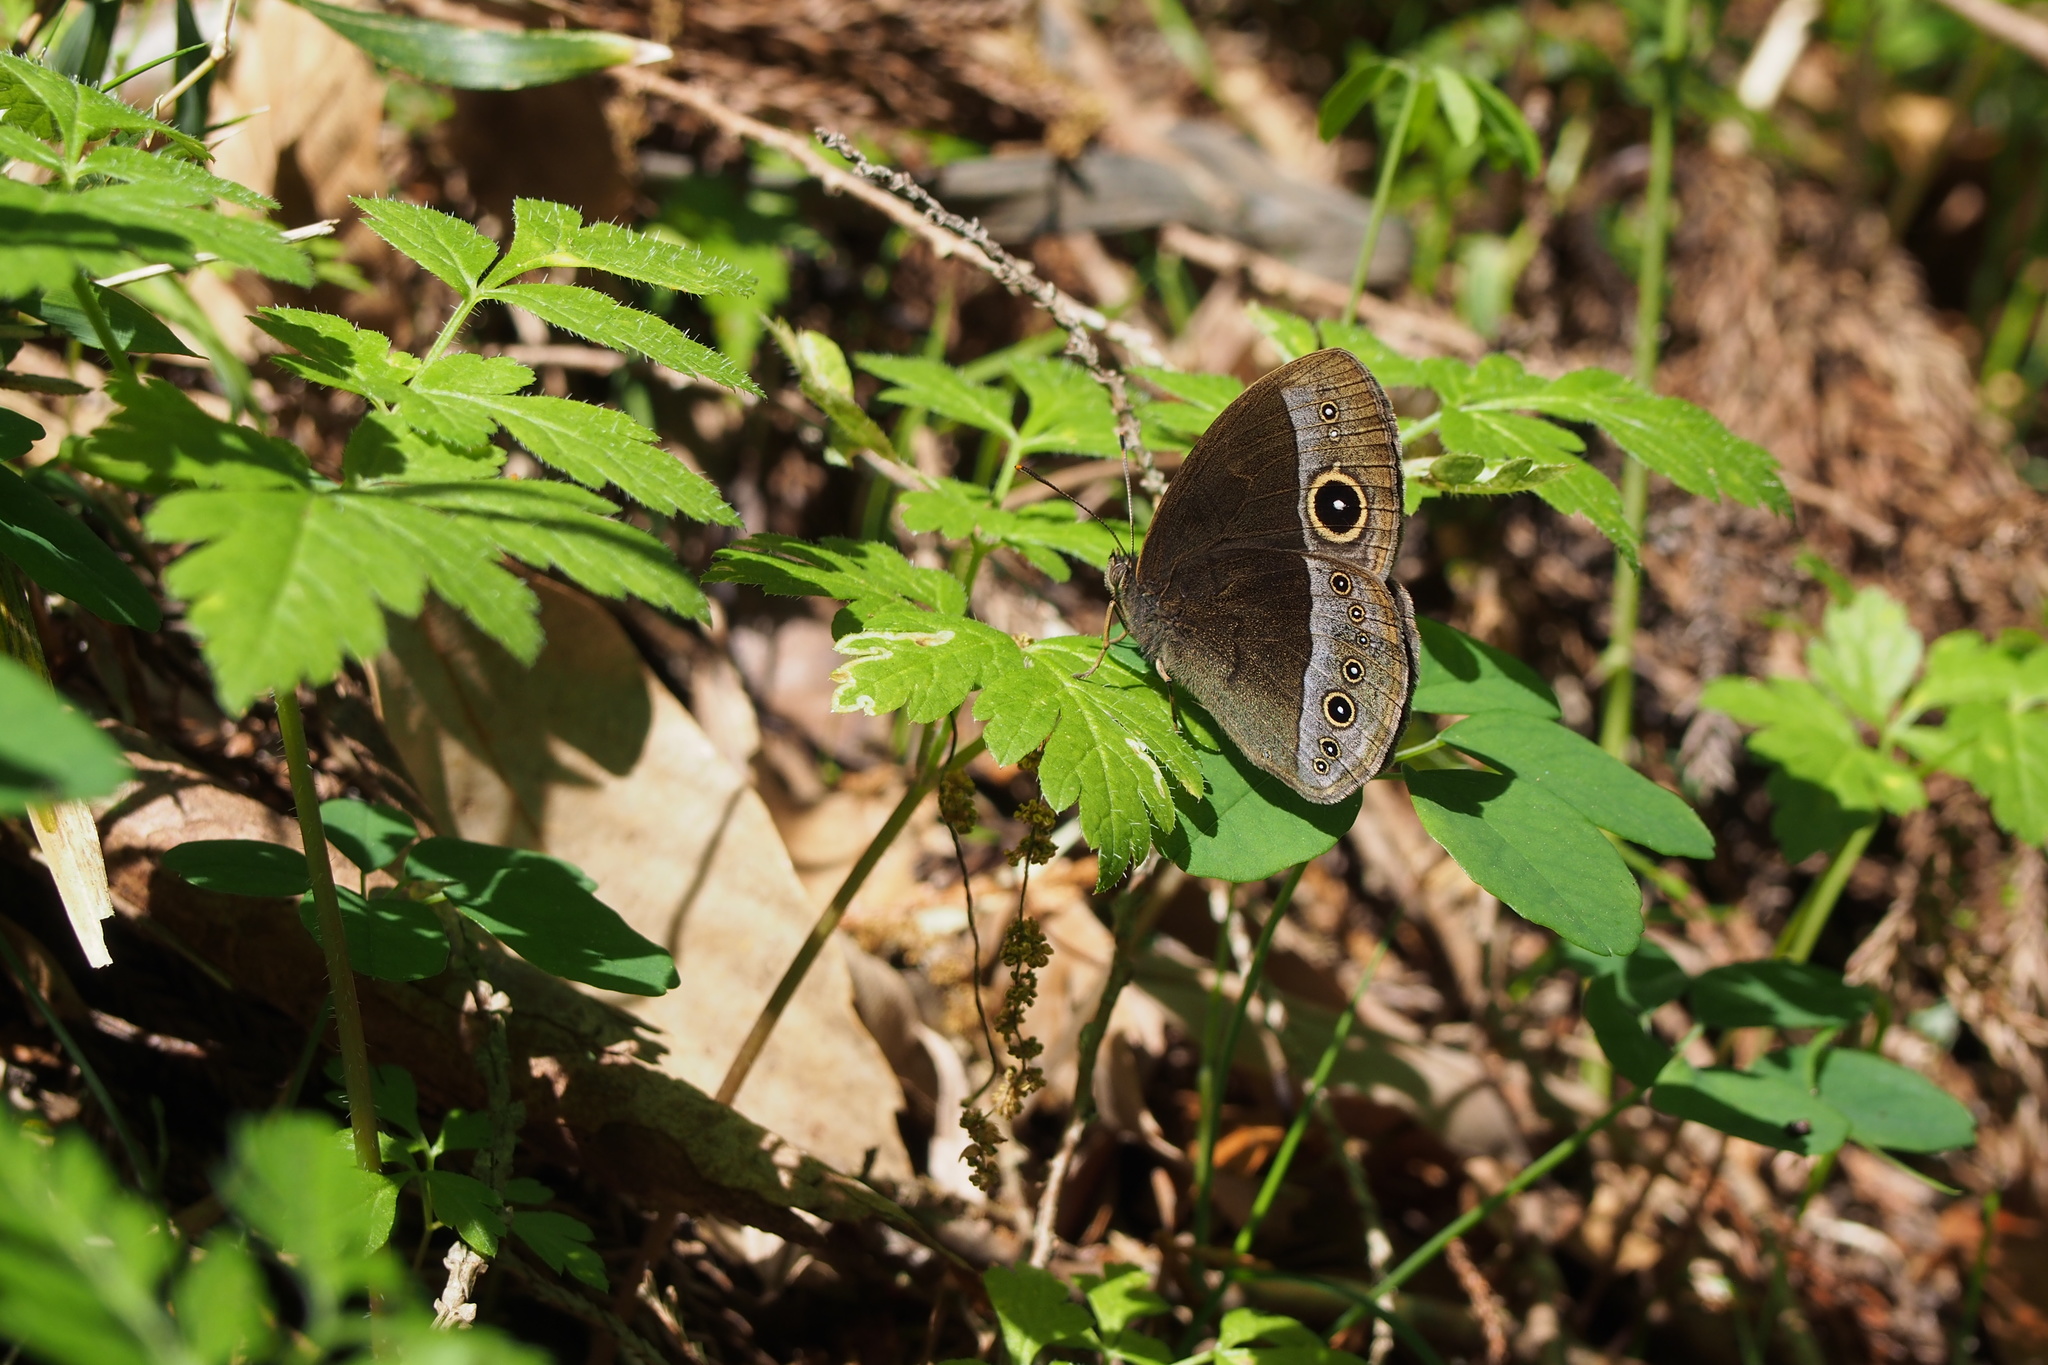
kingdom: Animalia
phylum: Arthropoda
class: Insecta
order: Lepidoptera
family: Nymphalidae
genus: Mycalesis
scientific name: Mycalesis francisca
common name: Lilacine bushbrown
